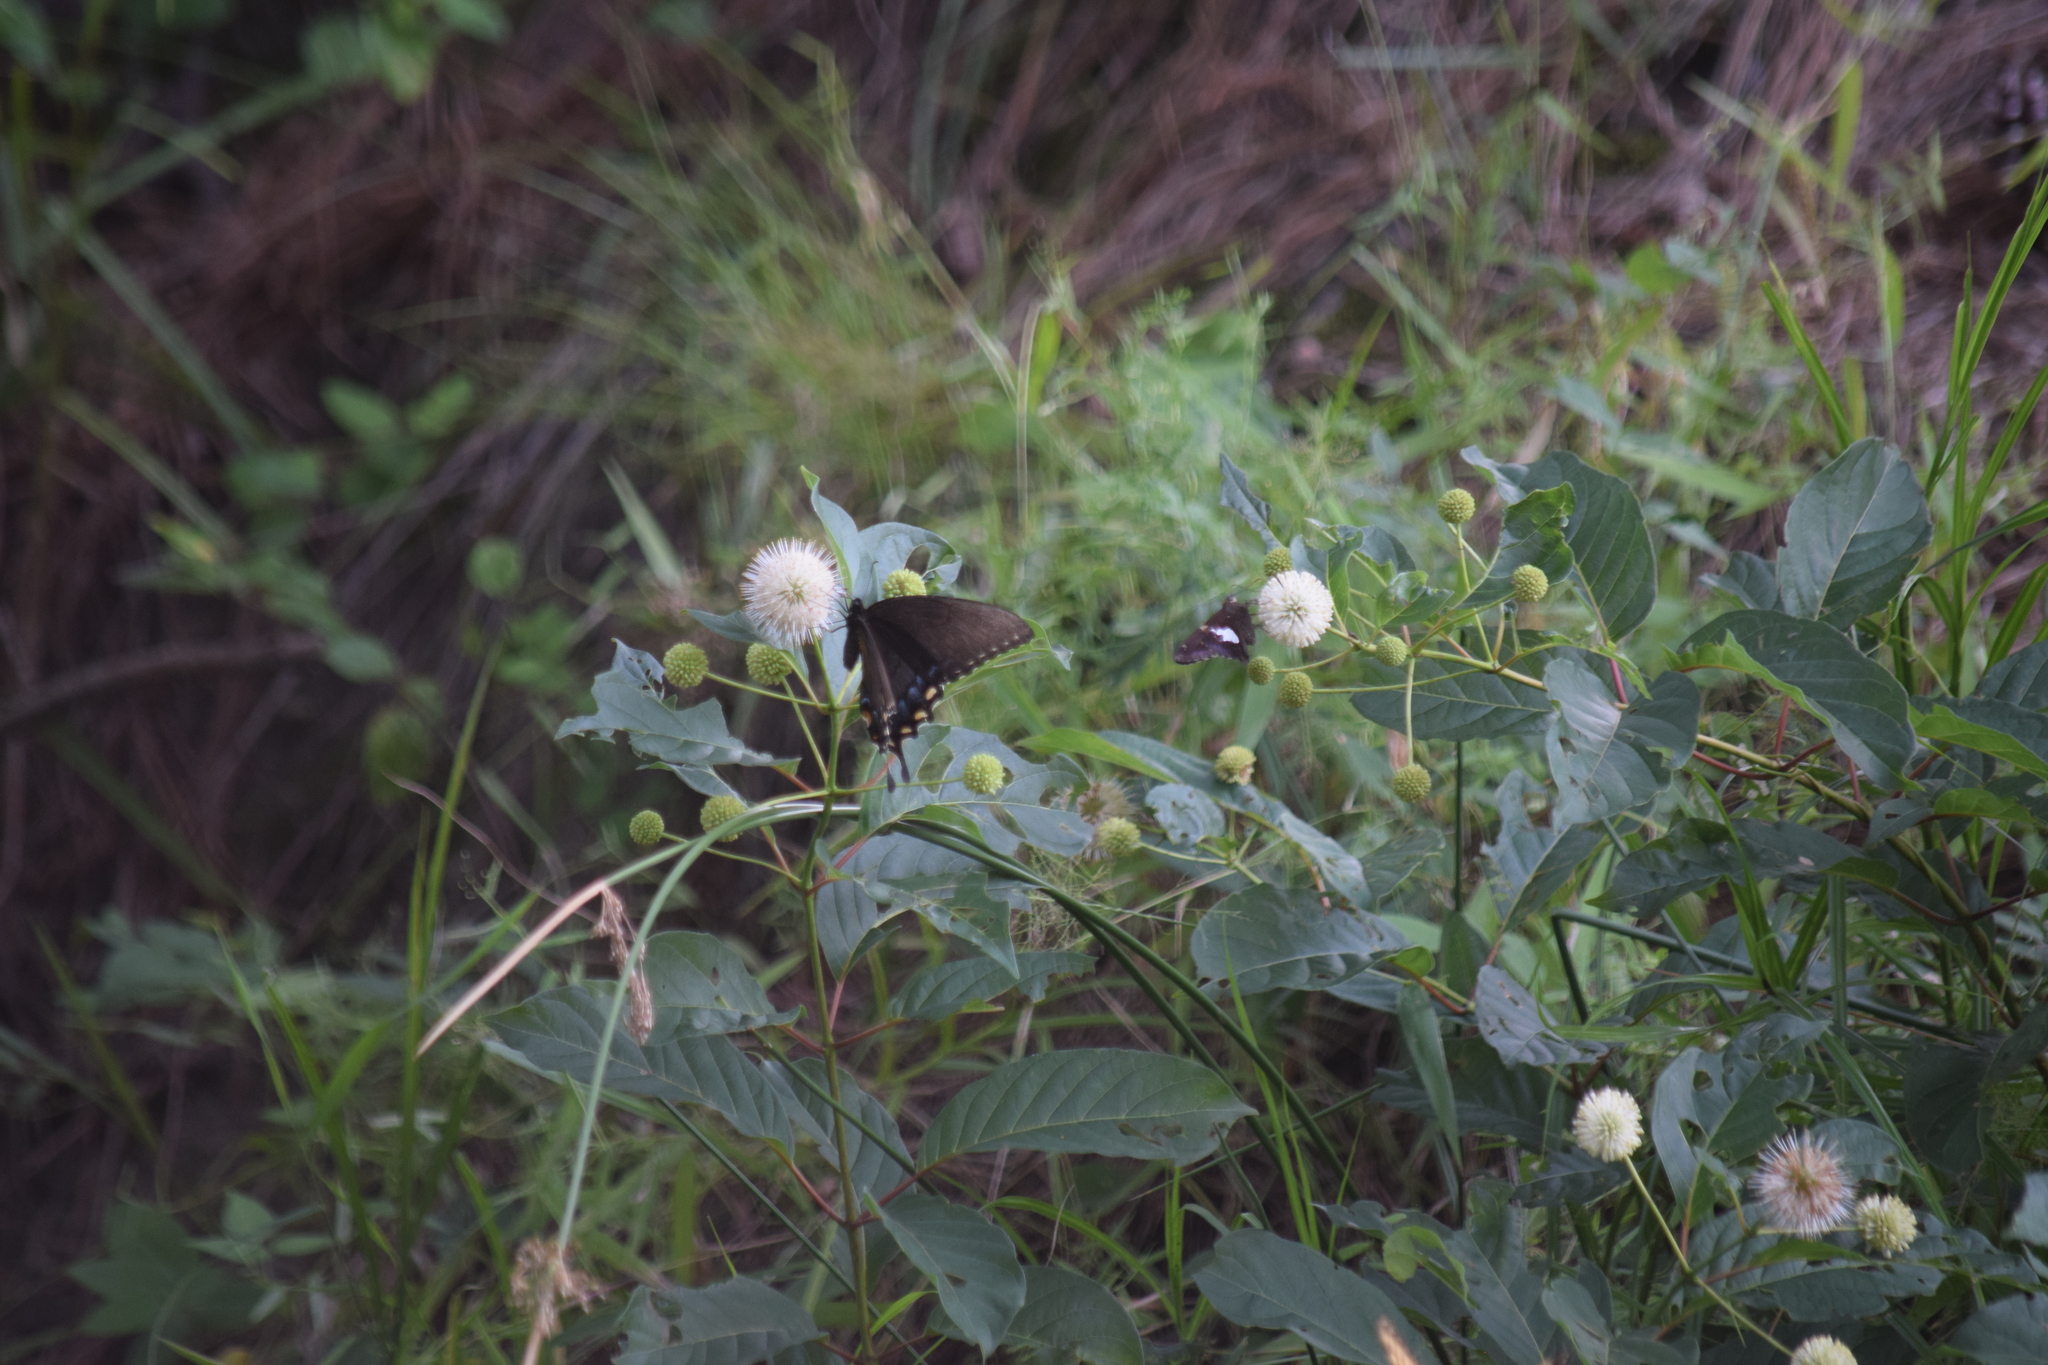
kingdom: Animalia
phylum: Arthropoda
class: Insecta
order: Lepidoptera
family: Papilionidae
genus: Papilio
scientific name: Papilio glaucus
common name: Tiger swallowtail
